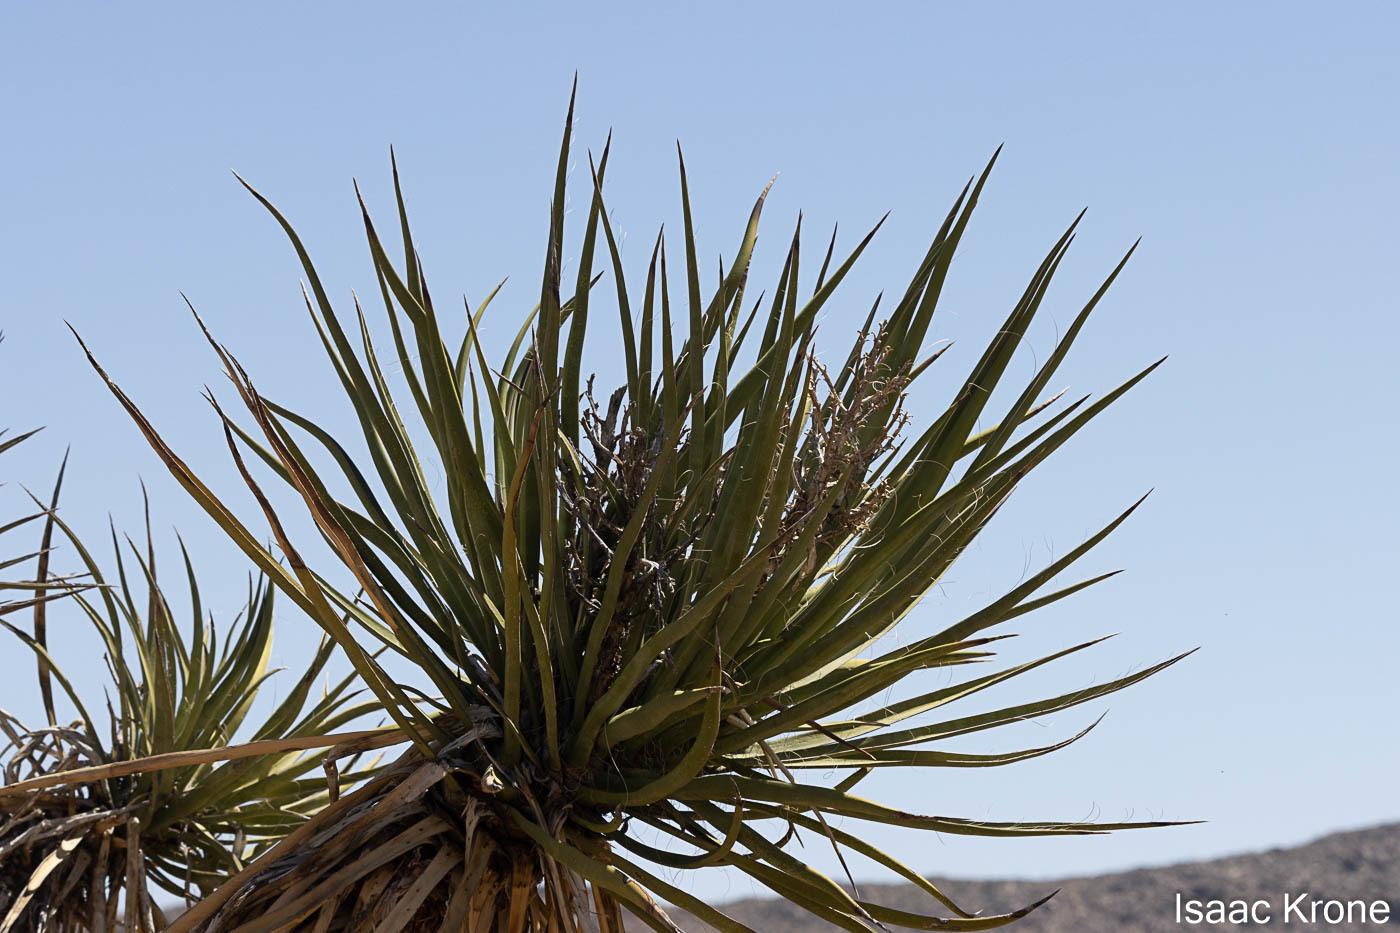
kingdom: Plantae
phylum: Tracheophyta
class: Liliopsida
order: Asparagales
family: Asparagaceae
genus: Yucca
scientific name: Yucca schidigera
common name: Mojave yucca
